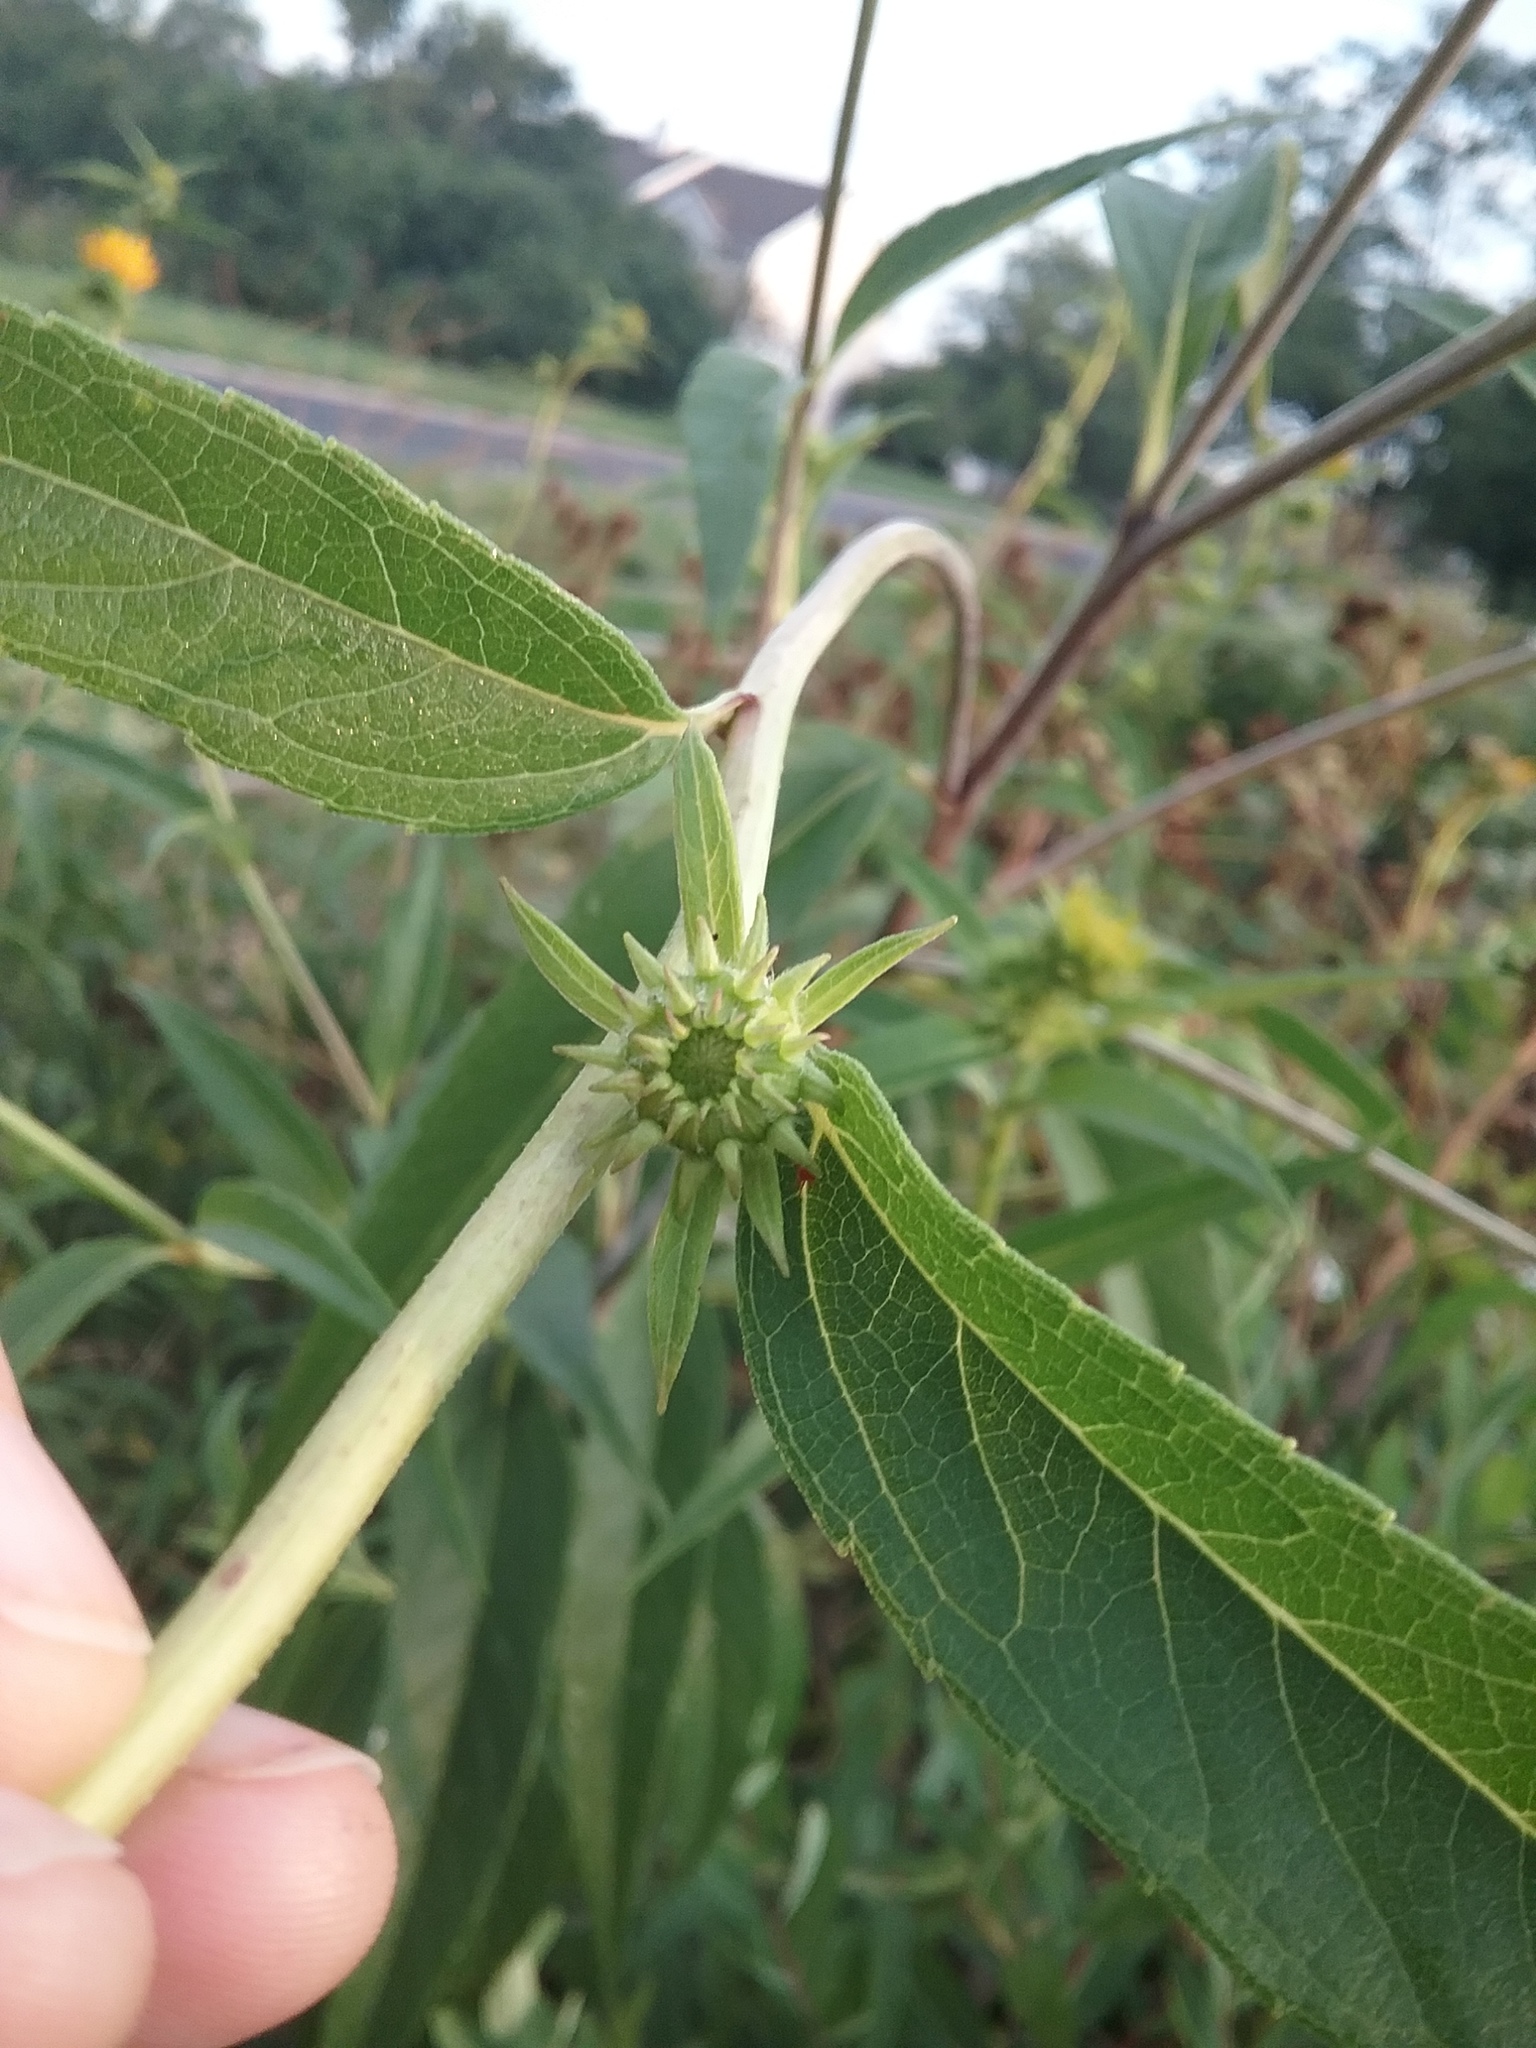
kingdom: Plantae
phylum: Tracheophyta
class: Magnoliopsida
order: Asterales
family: Asteraceae
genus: Helianthus
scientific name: Helianthus grosseserratus
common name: Sawtooth sunflower
